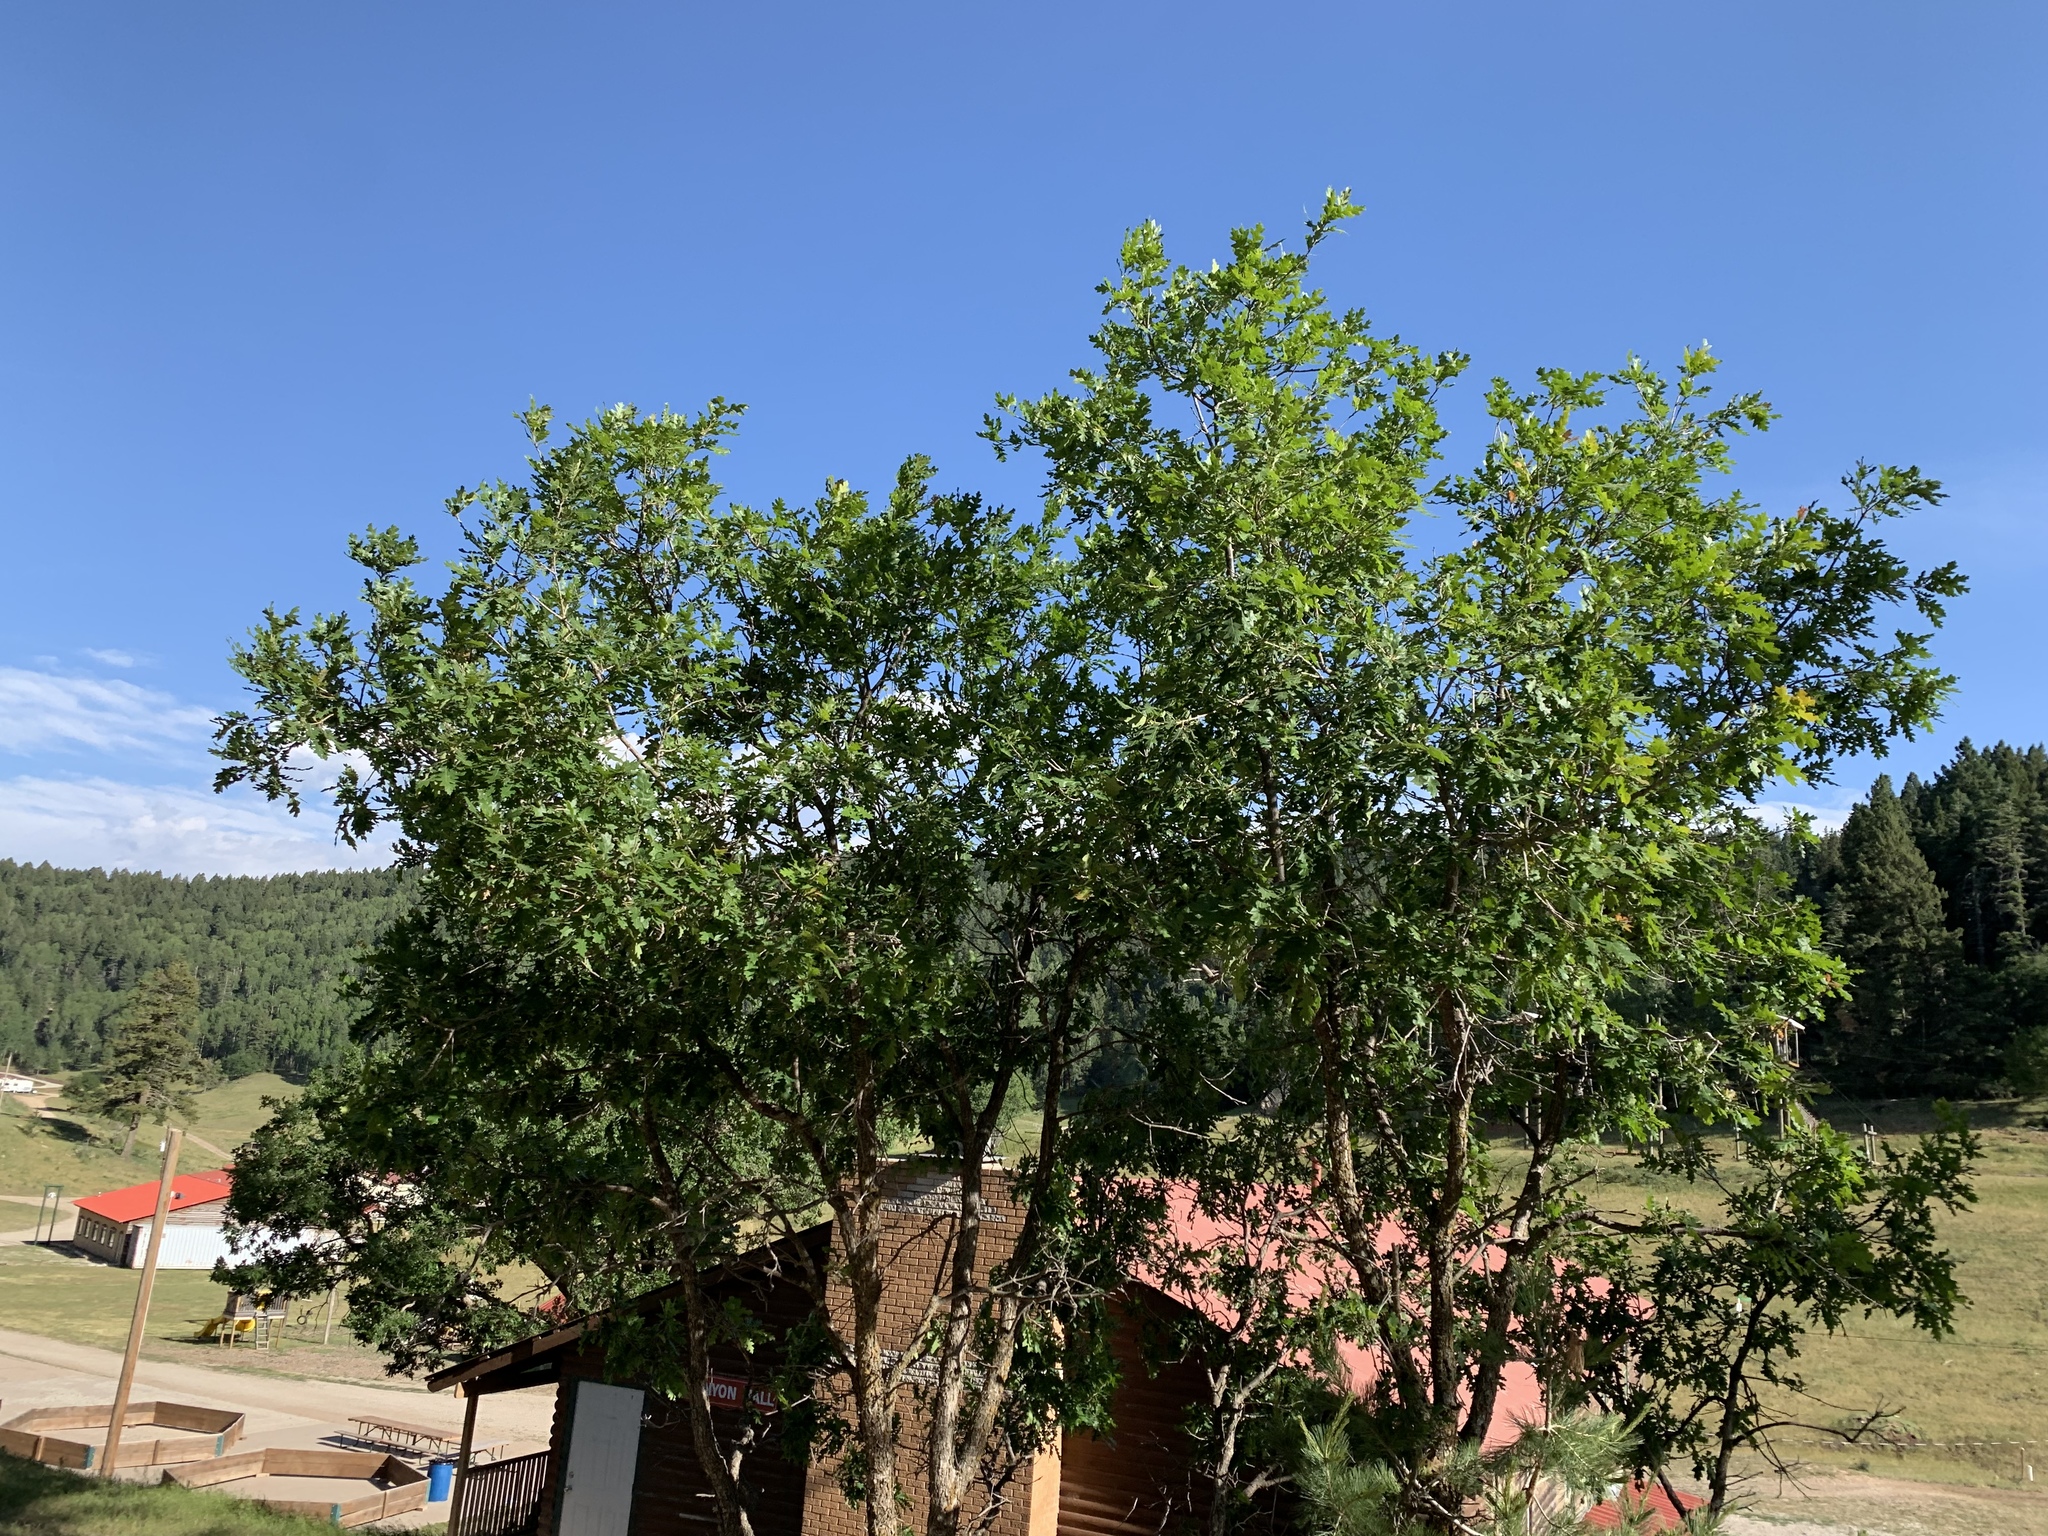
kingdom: Plantae
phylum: Tracheophyta
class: Magnoliopsida
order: Fagales
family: Fagaceae
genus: Quercus
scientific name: Quercus gambelii
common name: Gambel oak
